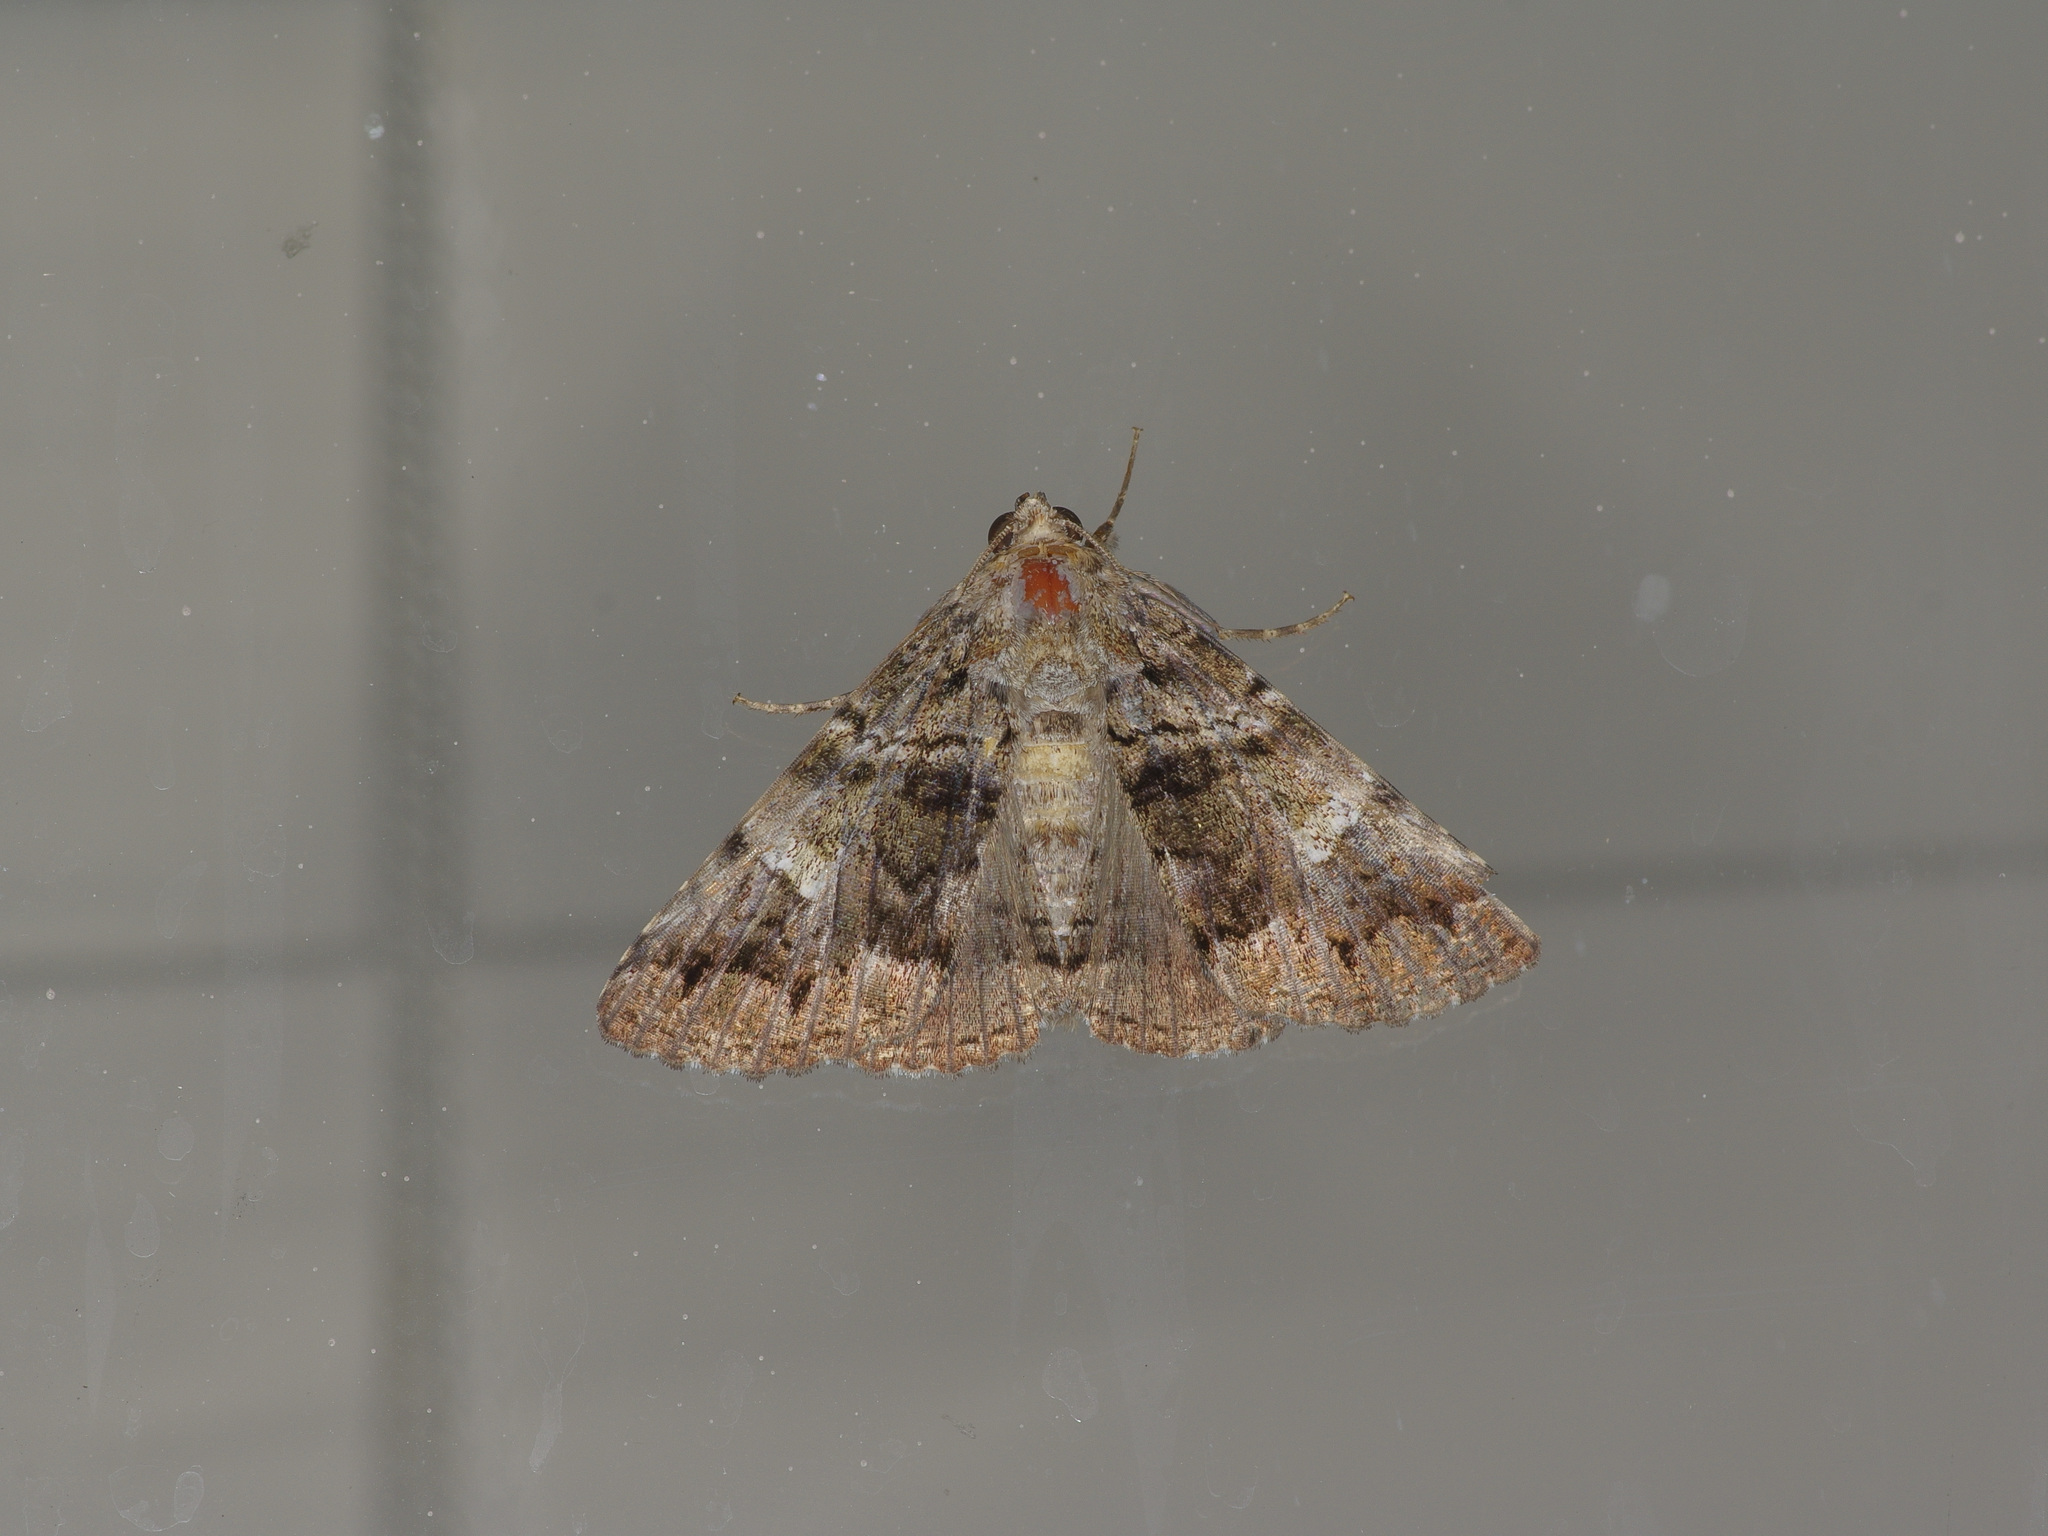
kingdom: Animalia
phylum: Arthropoda
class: Insecta
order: Lepidoptera
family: Erebidae
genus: Metria
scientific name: Metria amella
